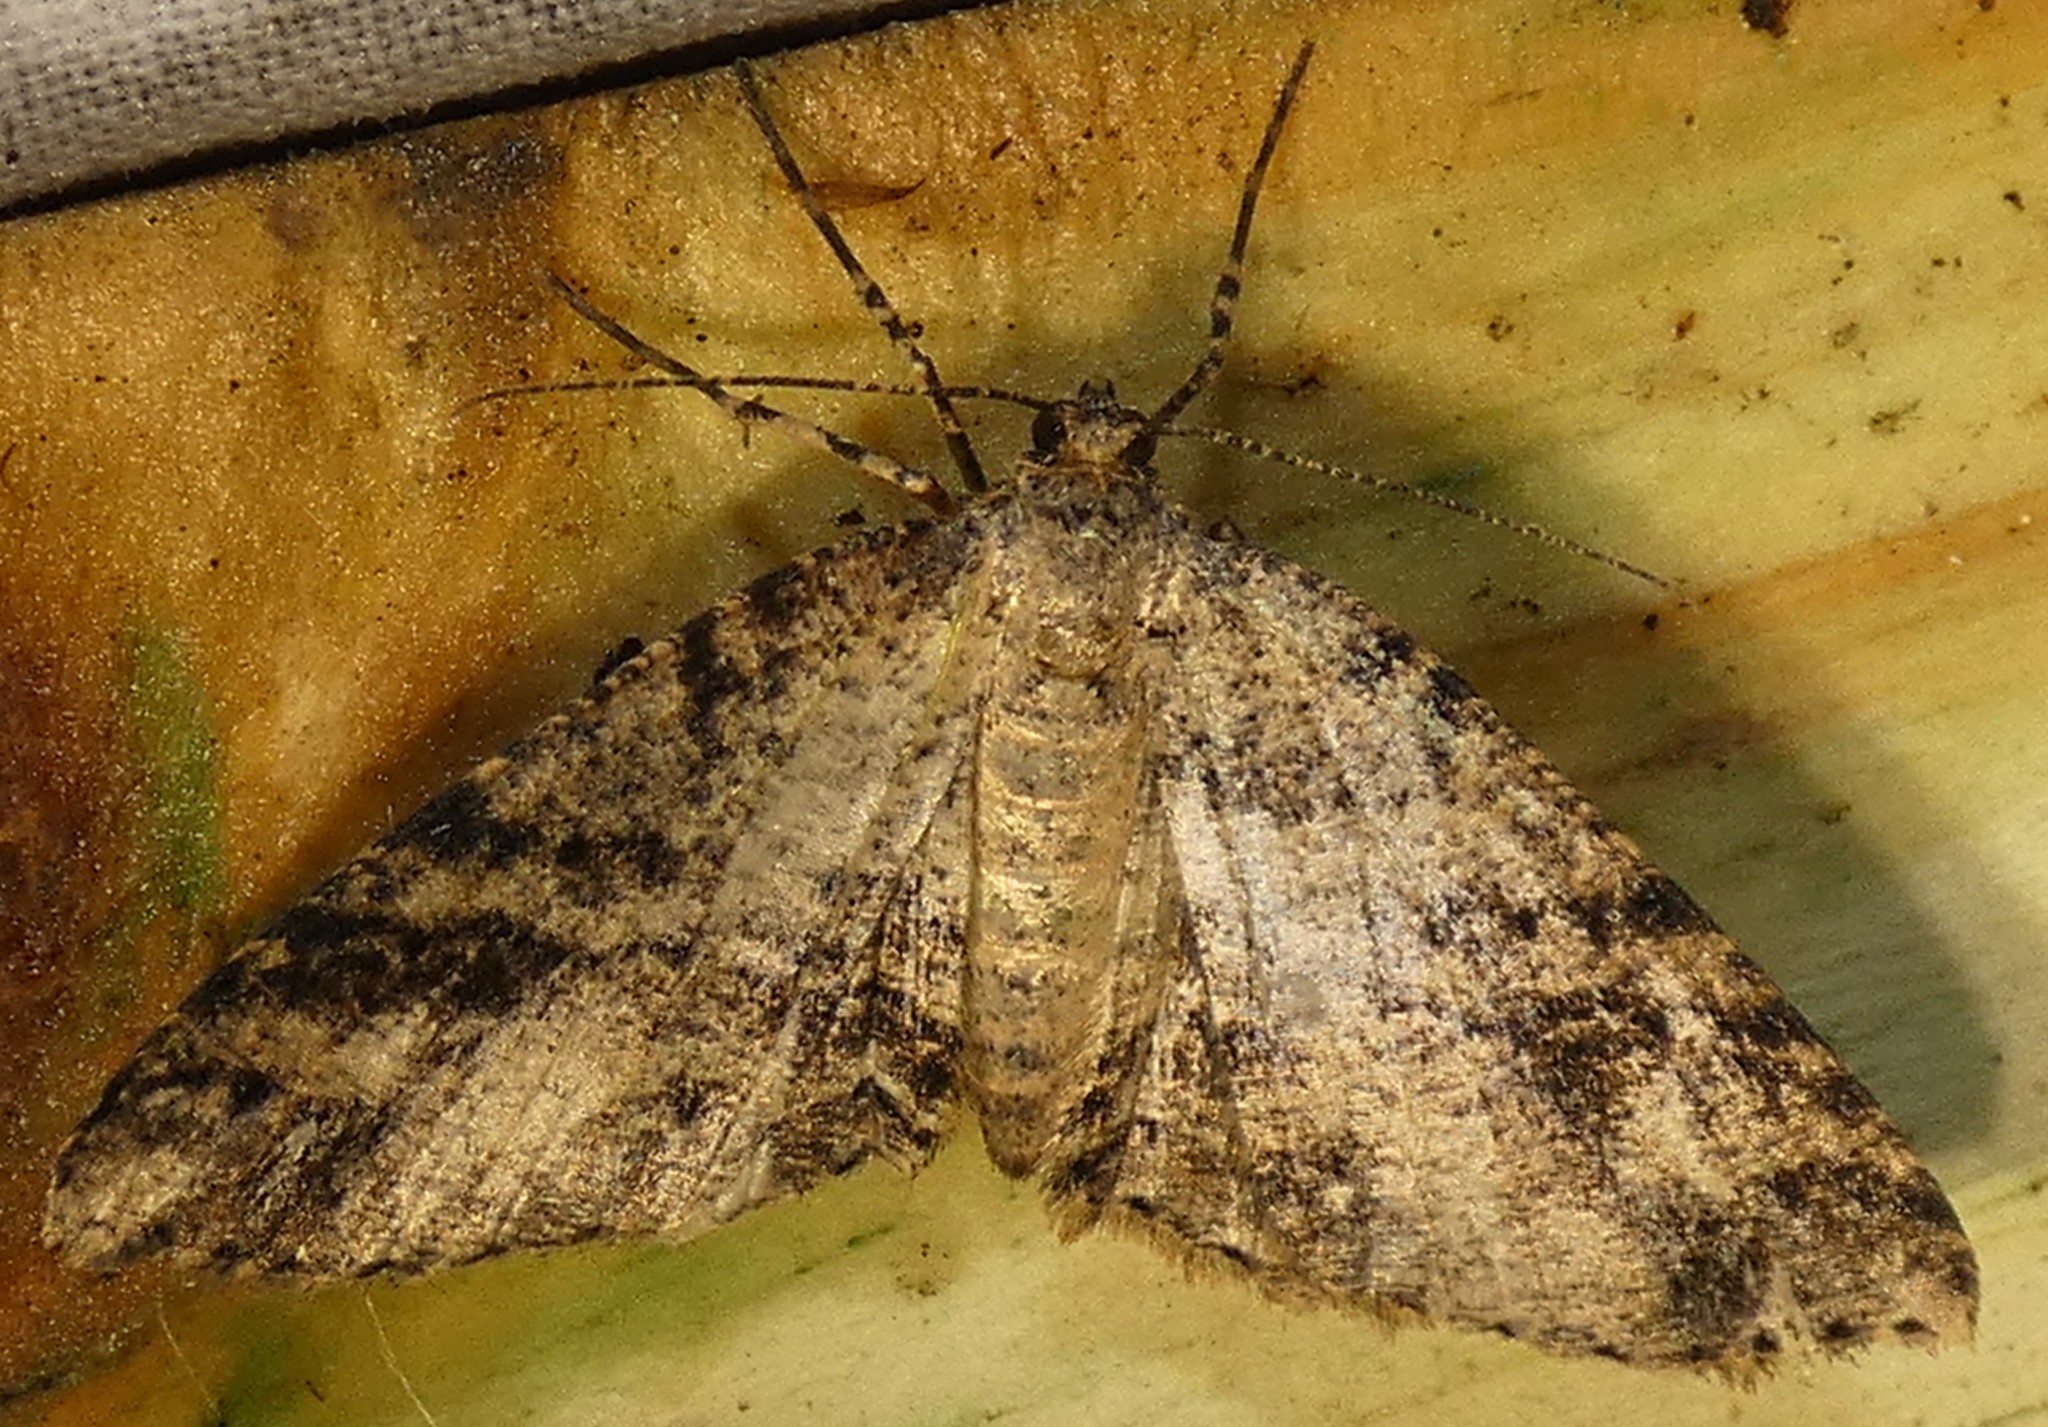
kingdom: Animalia
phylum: Arthropoda
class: Insecta
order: Lepidoptera
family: Geometridae
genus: Melanolophia
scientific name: Melanolophia canadaria
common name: Canadian melanolophia
